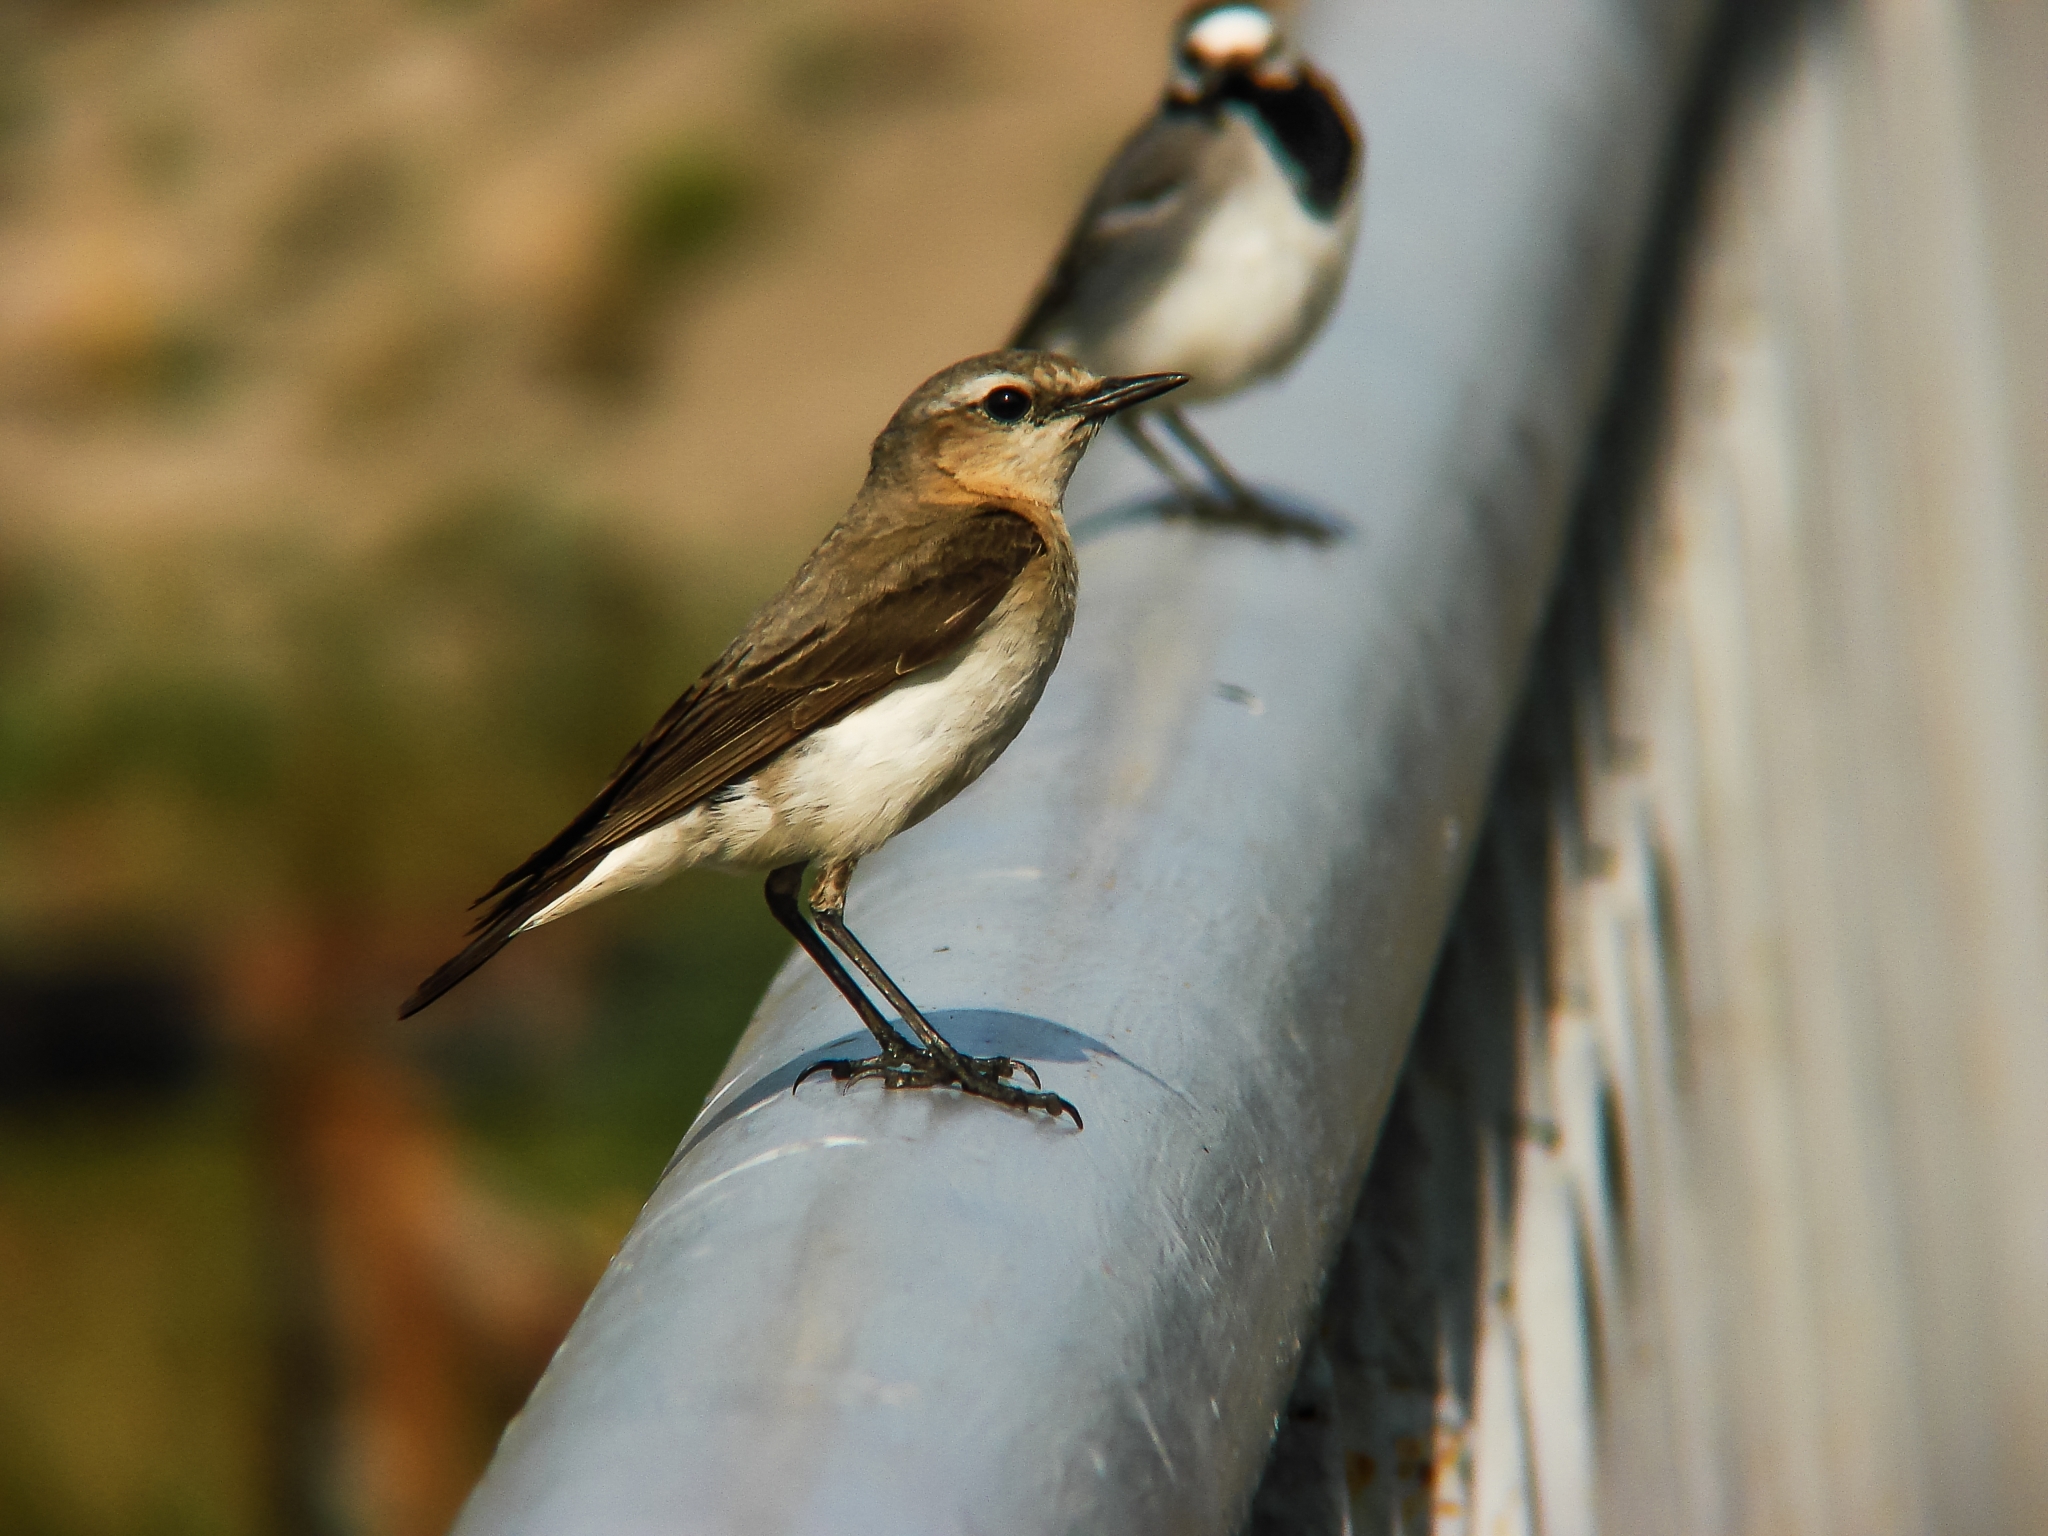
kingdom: Animalia
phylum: Chordata
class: Aves
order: Passeriformes
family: Muscicapidae
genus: Oenanthe
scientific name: Oenanthe oenanthe
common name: Northern wheatear
